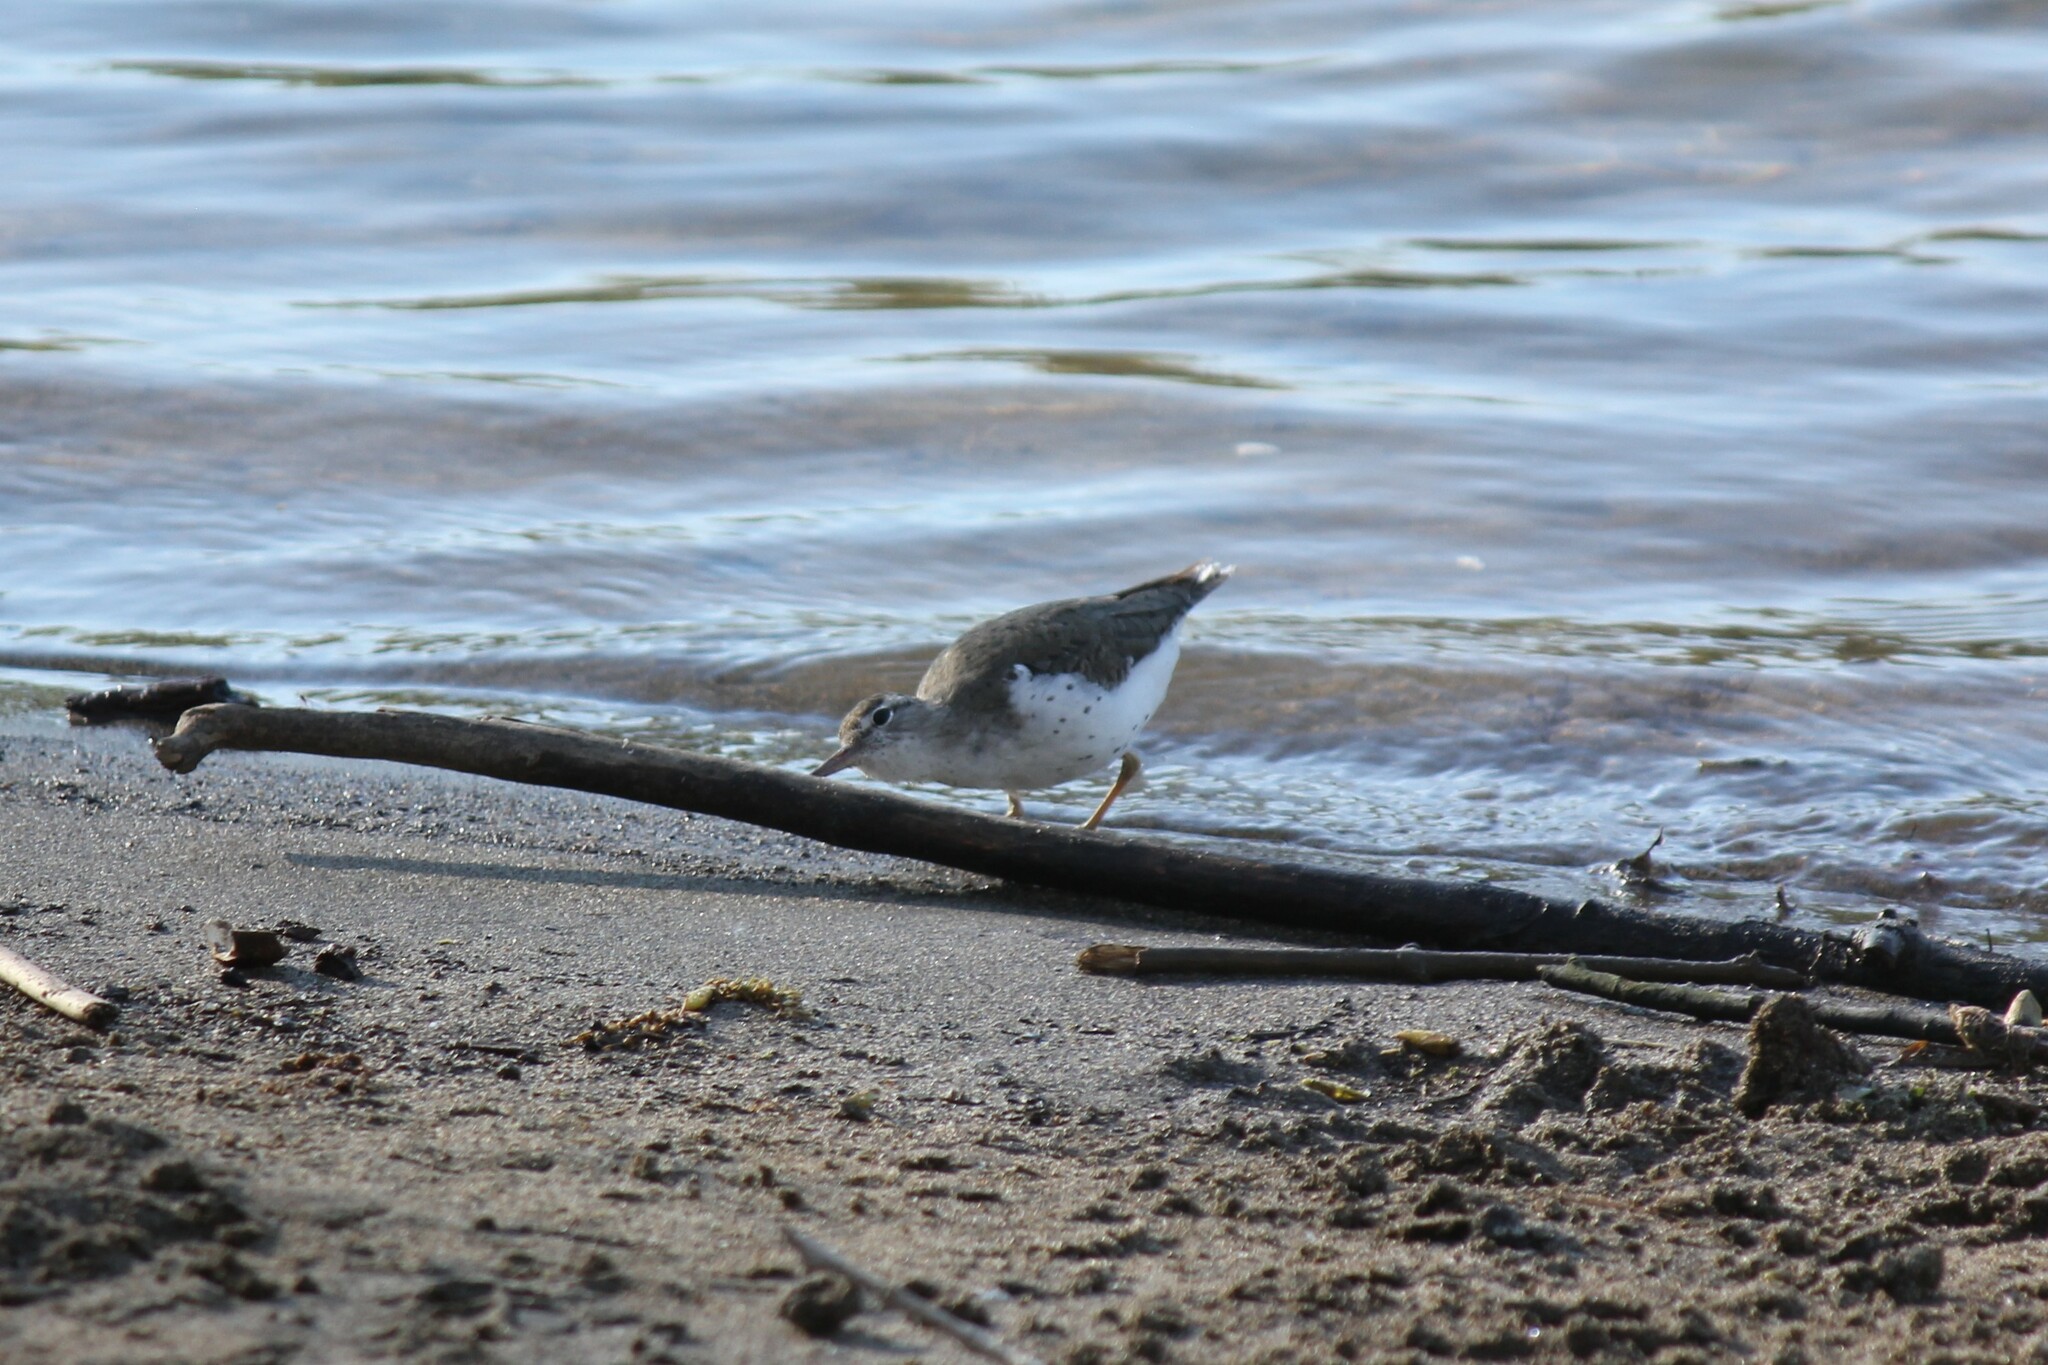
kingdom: Animalia
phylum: Chordata
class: Aves
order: Charadriiformes
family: Scolopacidae
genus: Actitis
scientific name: Actitis macularius
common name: Spotted sandpiper
